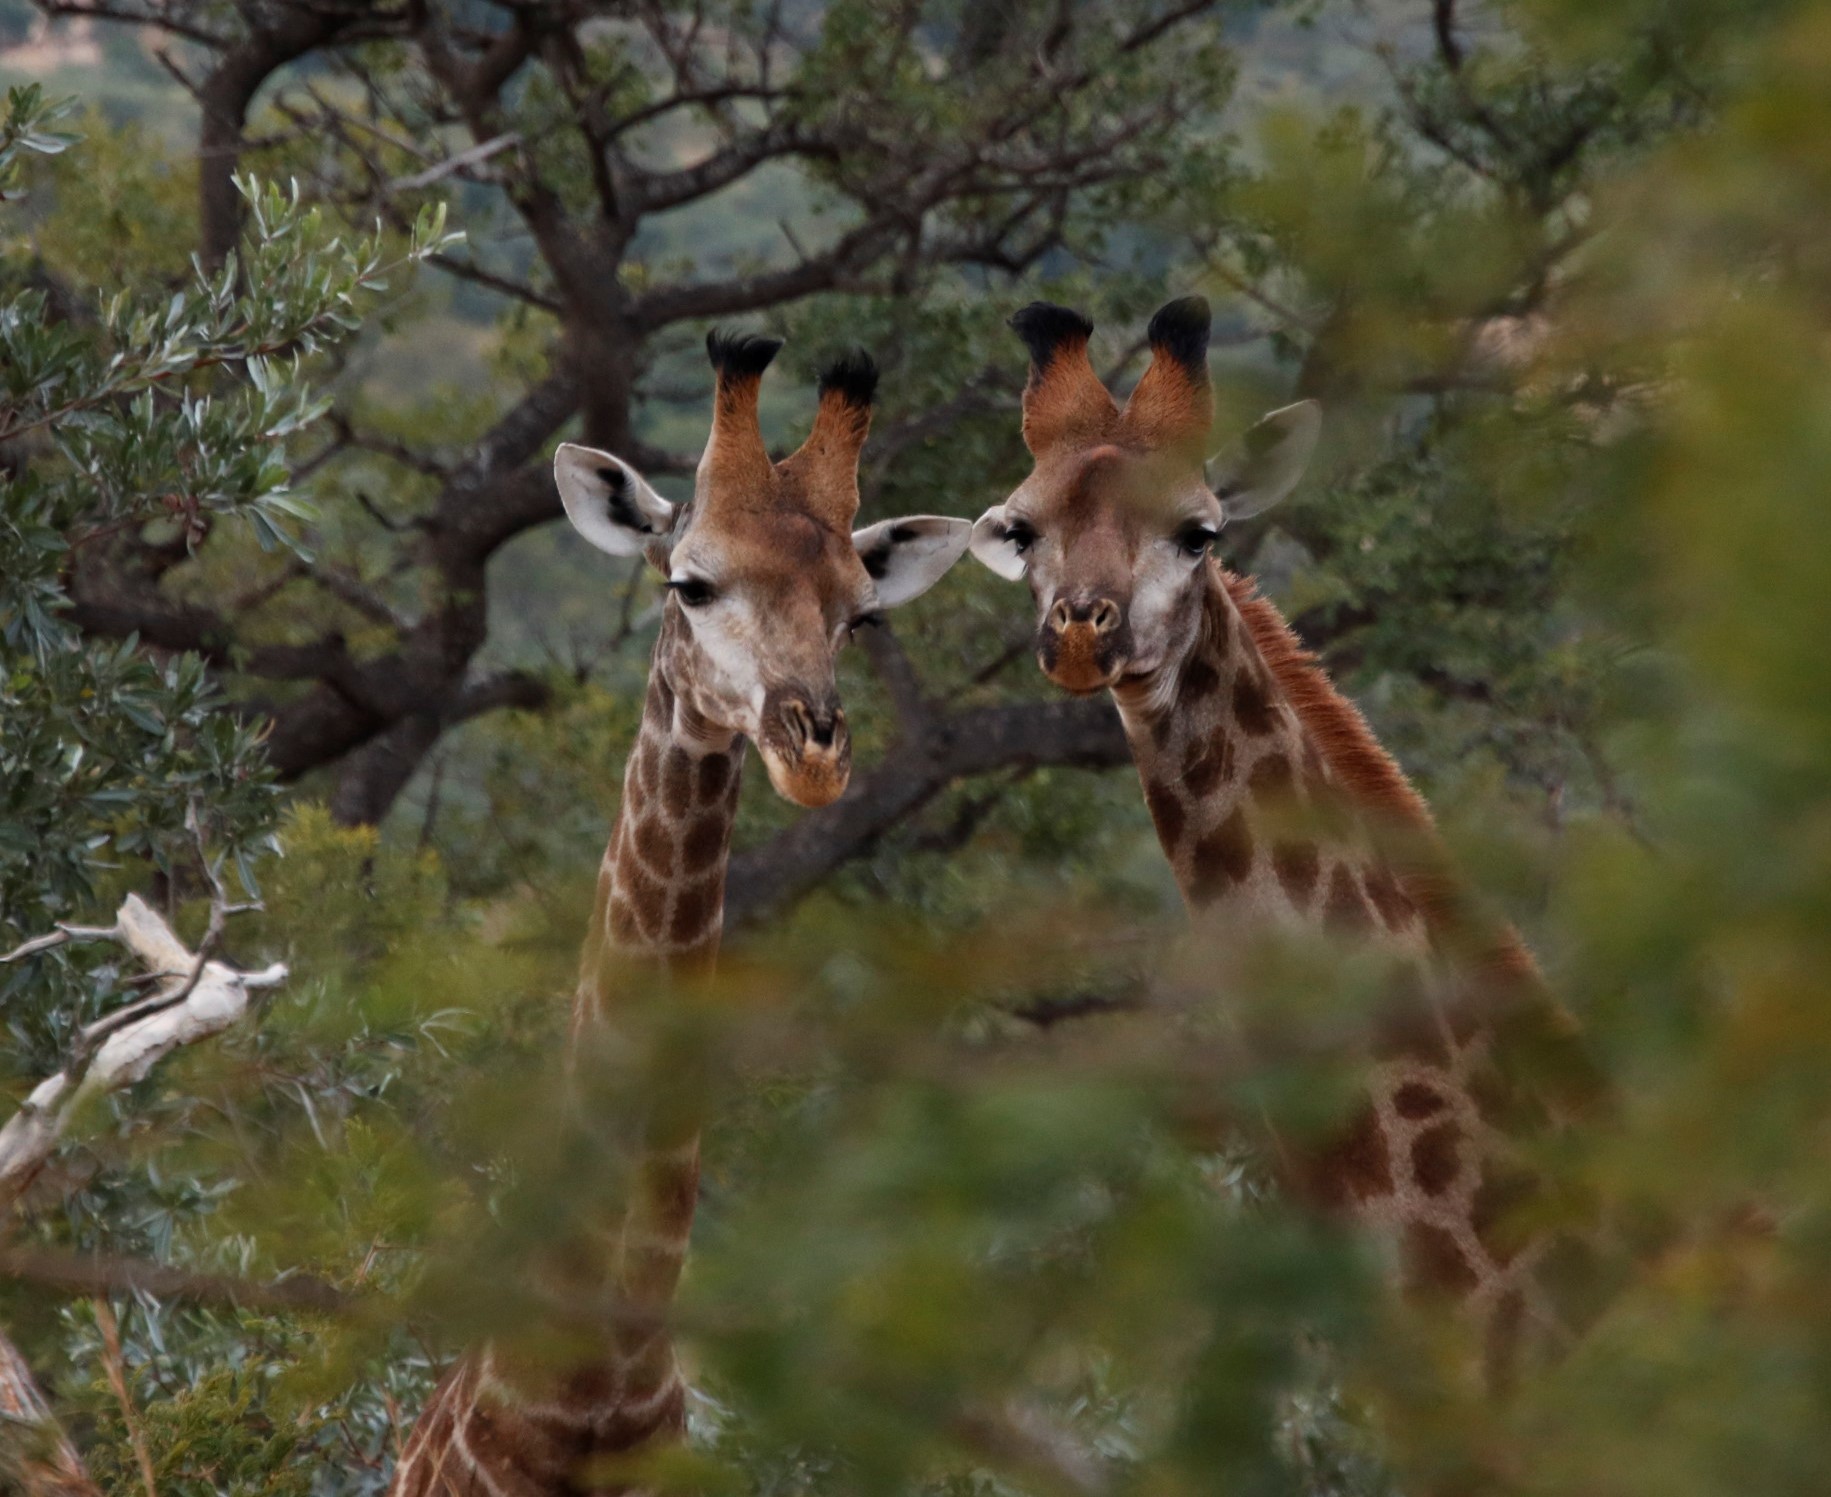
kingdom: Animalia
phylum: Chordata
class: Mammalia
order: Artiodactyla
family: Giraffidae
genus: Giraffa
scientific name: Giraffa giraffa
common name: Southern giraffe
